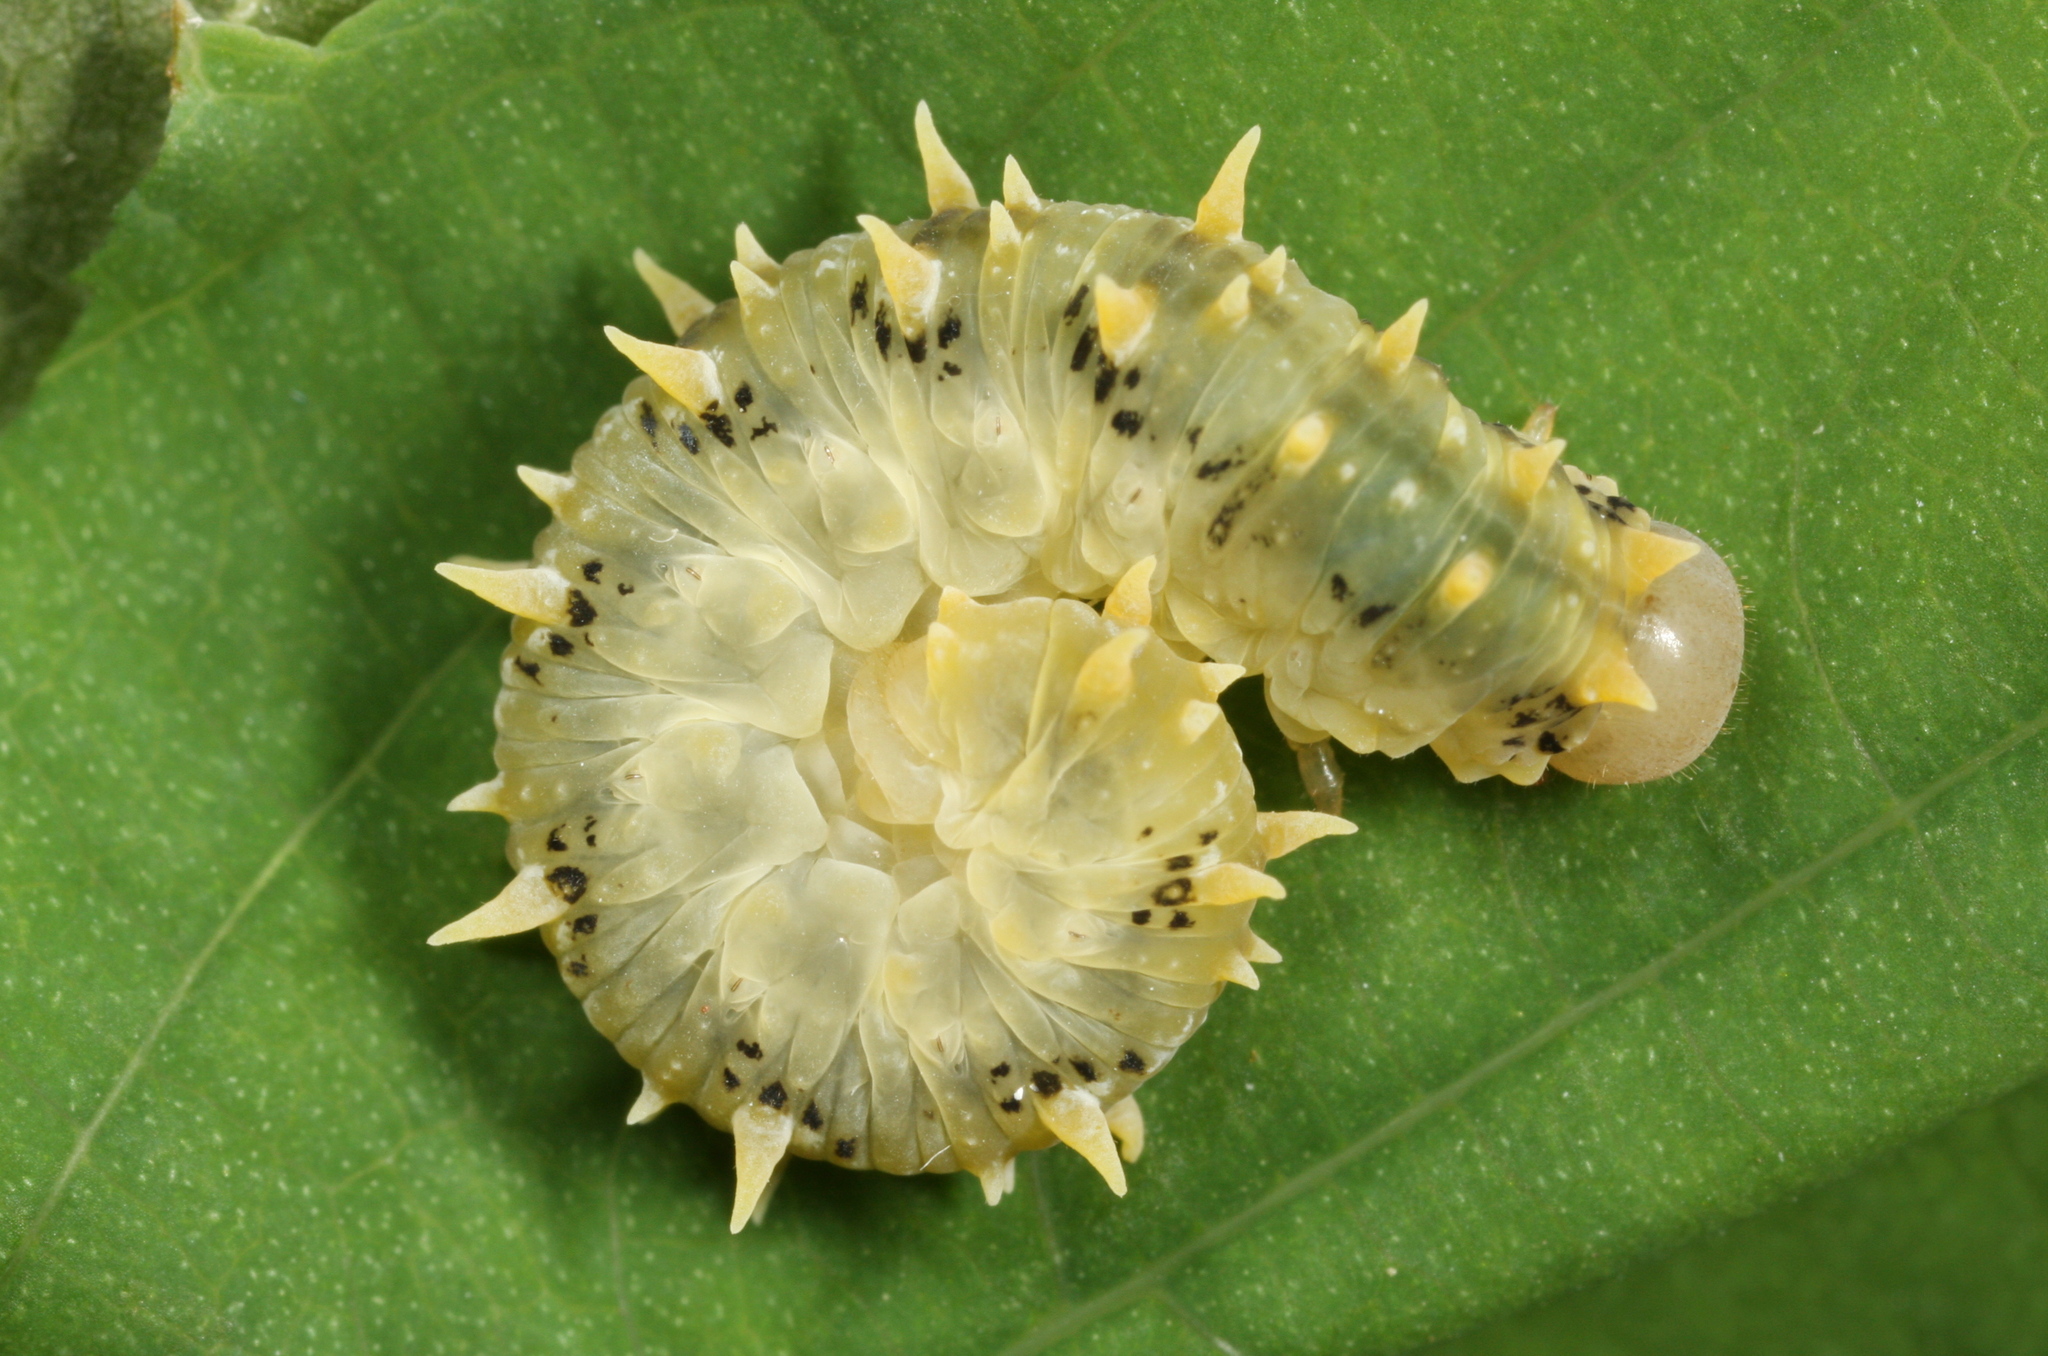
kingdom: Animalia
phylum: Arthropoda
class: Insecta
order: Hymenoptera
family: Tenthredinidae
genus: Siobla
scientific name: Siobla sturmii
